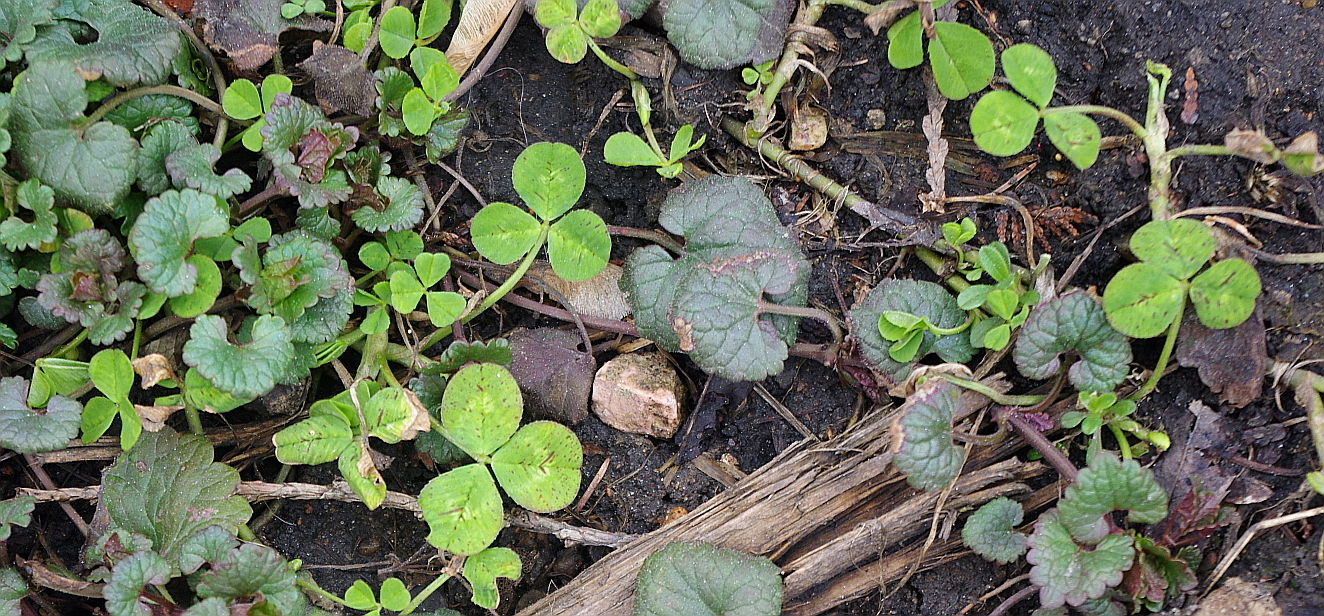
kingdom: Plantae
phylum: Tracheophyta
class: Magnoliopsida
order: Fabales
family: Fabaceae
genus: Trifolium
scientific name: Trifolium repens
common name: White clover
